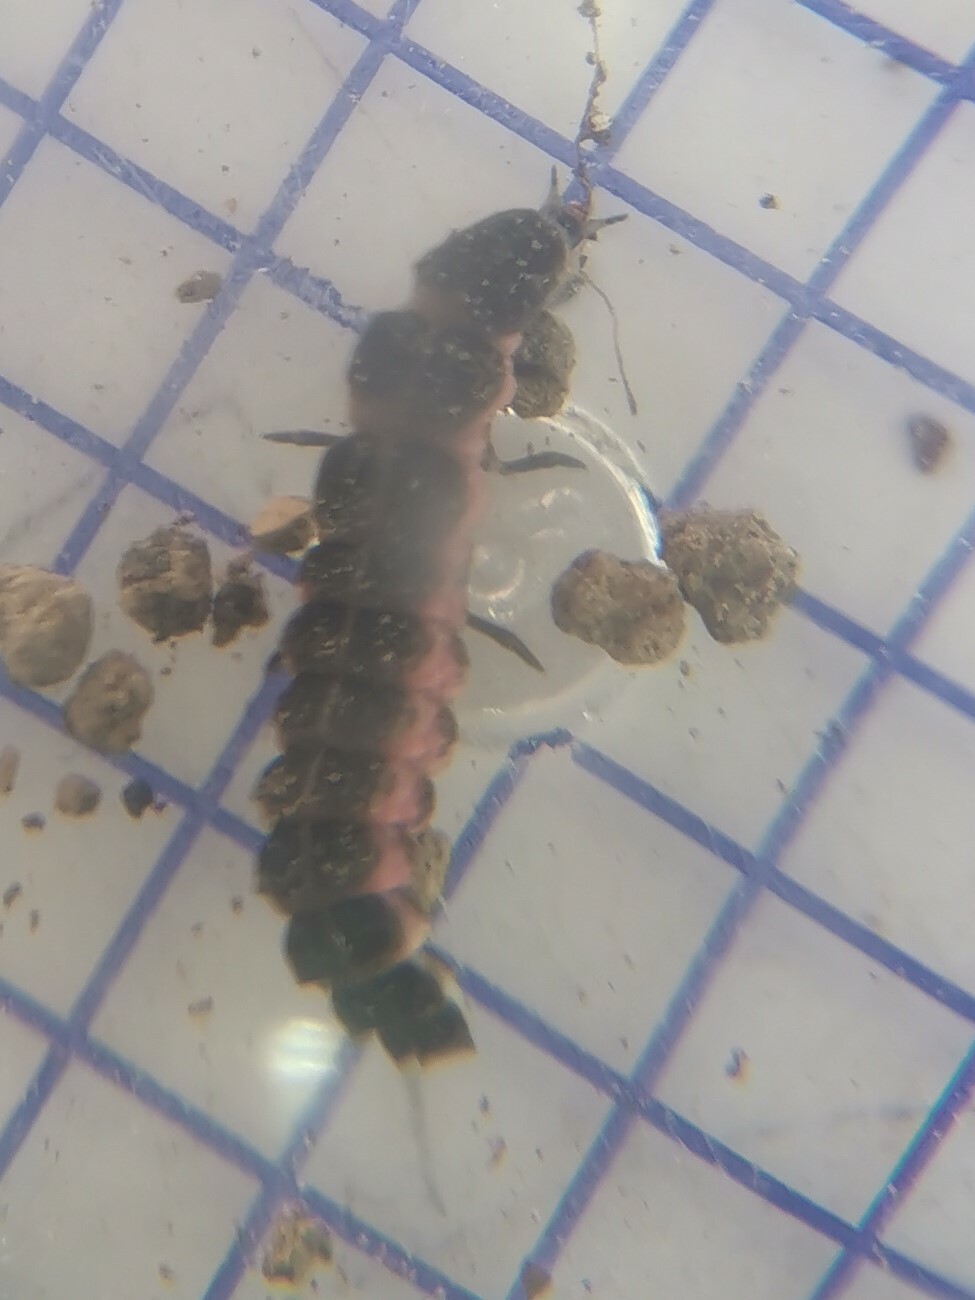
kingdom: Animalia
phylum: Arthropoda
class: Insecta
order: Coleoptera
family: Lampyridae
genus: Nyctophila
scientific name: Nyctophila reichii
